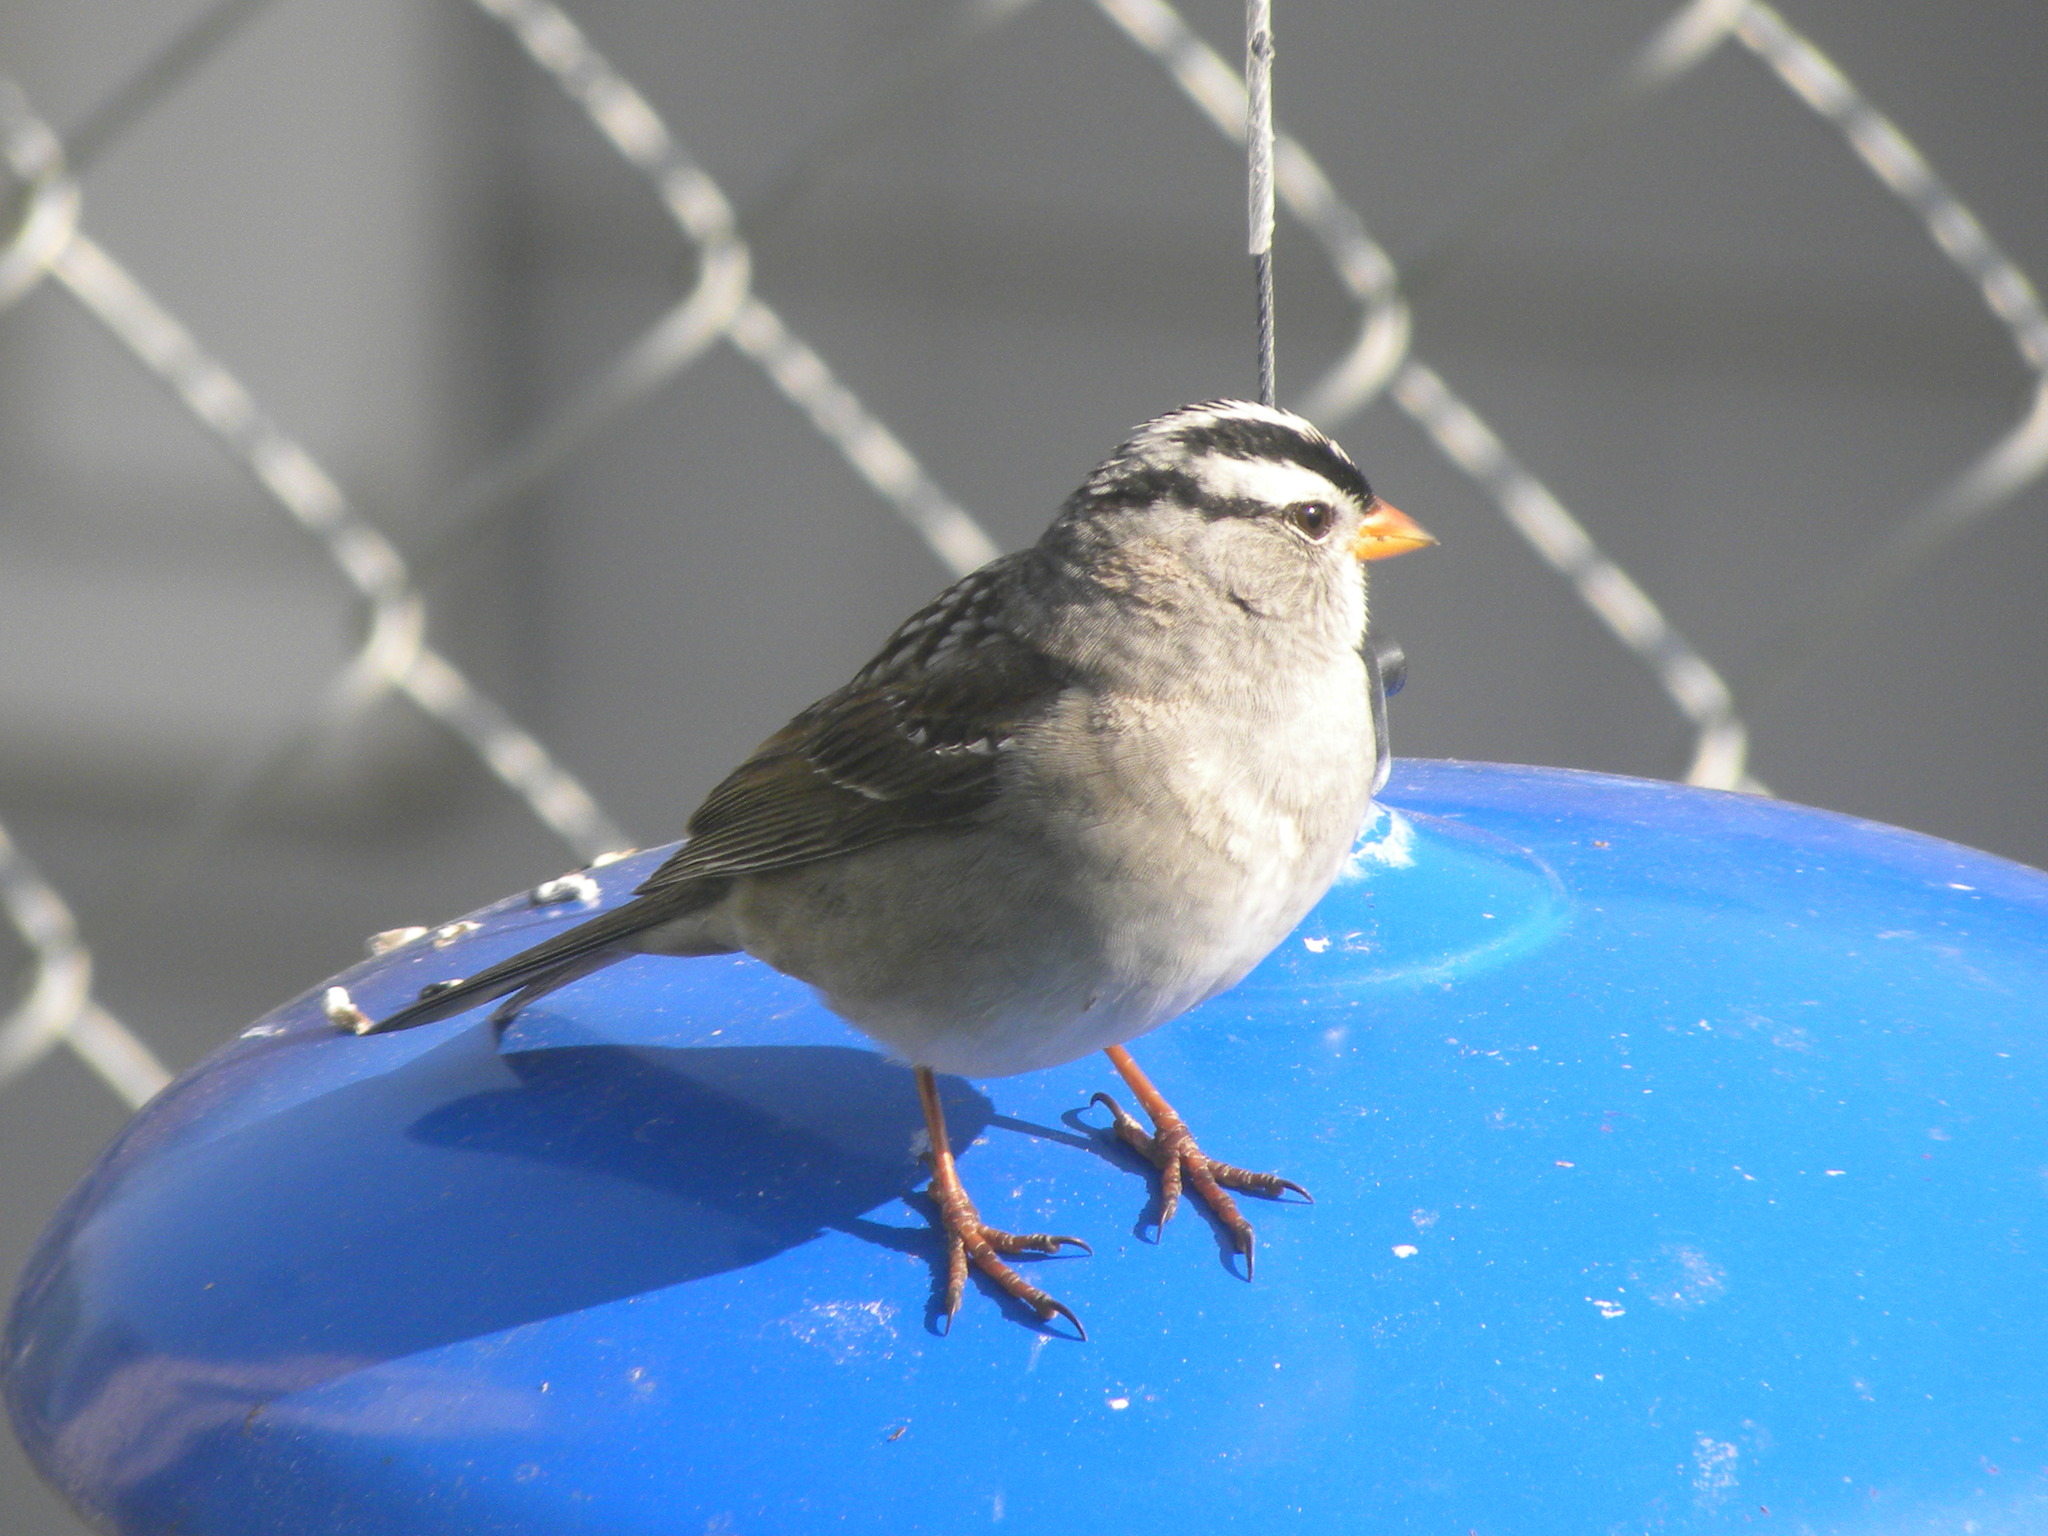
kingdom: Animalia
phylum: Chordata
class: Aves
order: Passeriformes
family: Passerellidae
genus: Zonotrichia
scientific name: Zonotrichia leucophrys
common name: White-crowned sparrow
